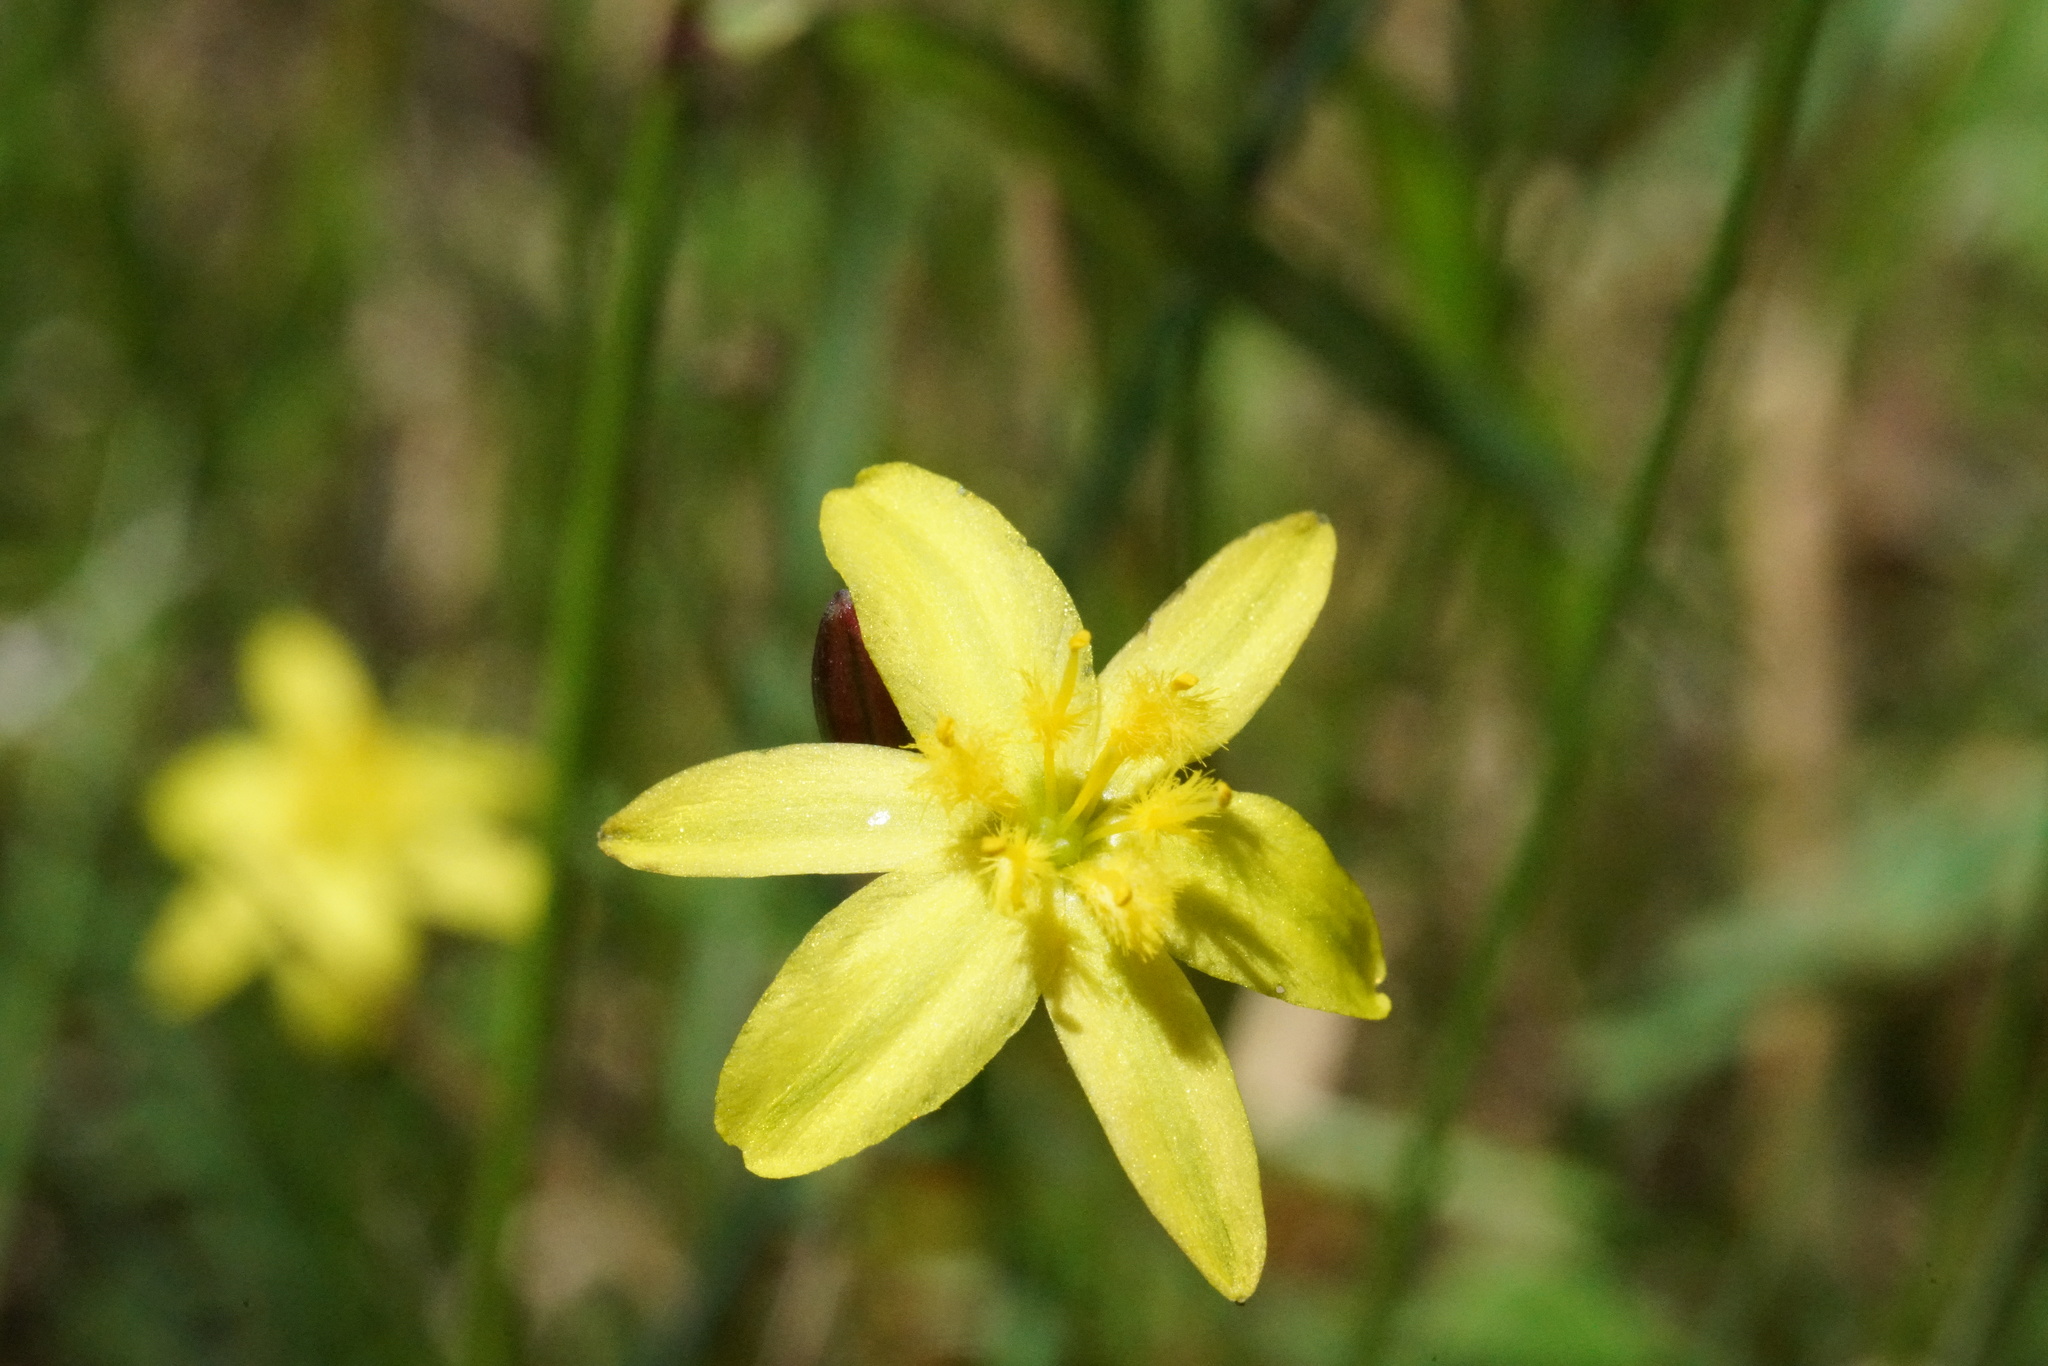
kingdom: Plantae
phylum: Tracheophyta
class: Liliopsida
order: Asparagales
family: Asphodelaceae
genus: Tricoryne
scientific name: Tricoryne elatior
